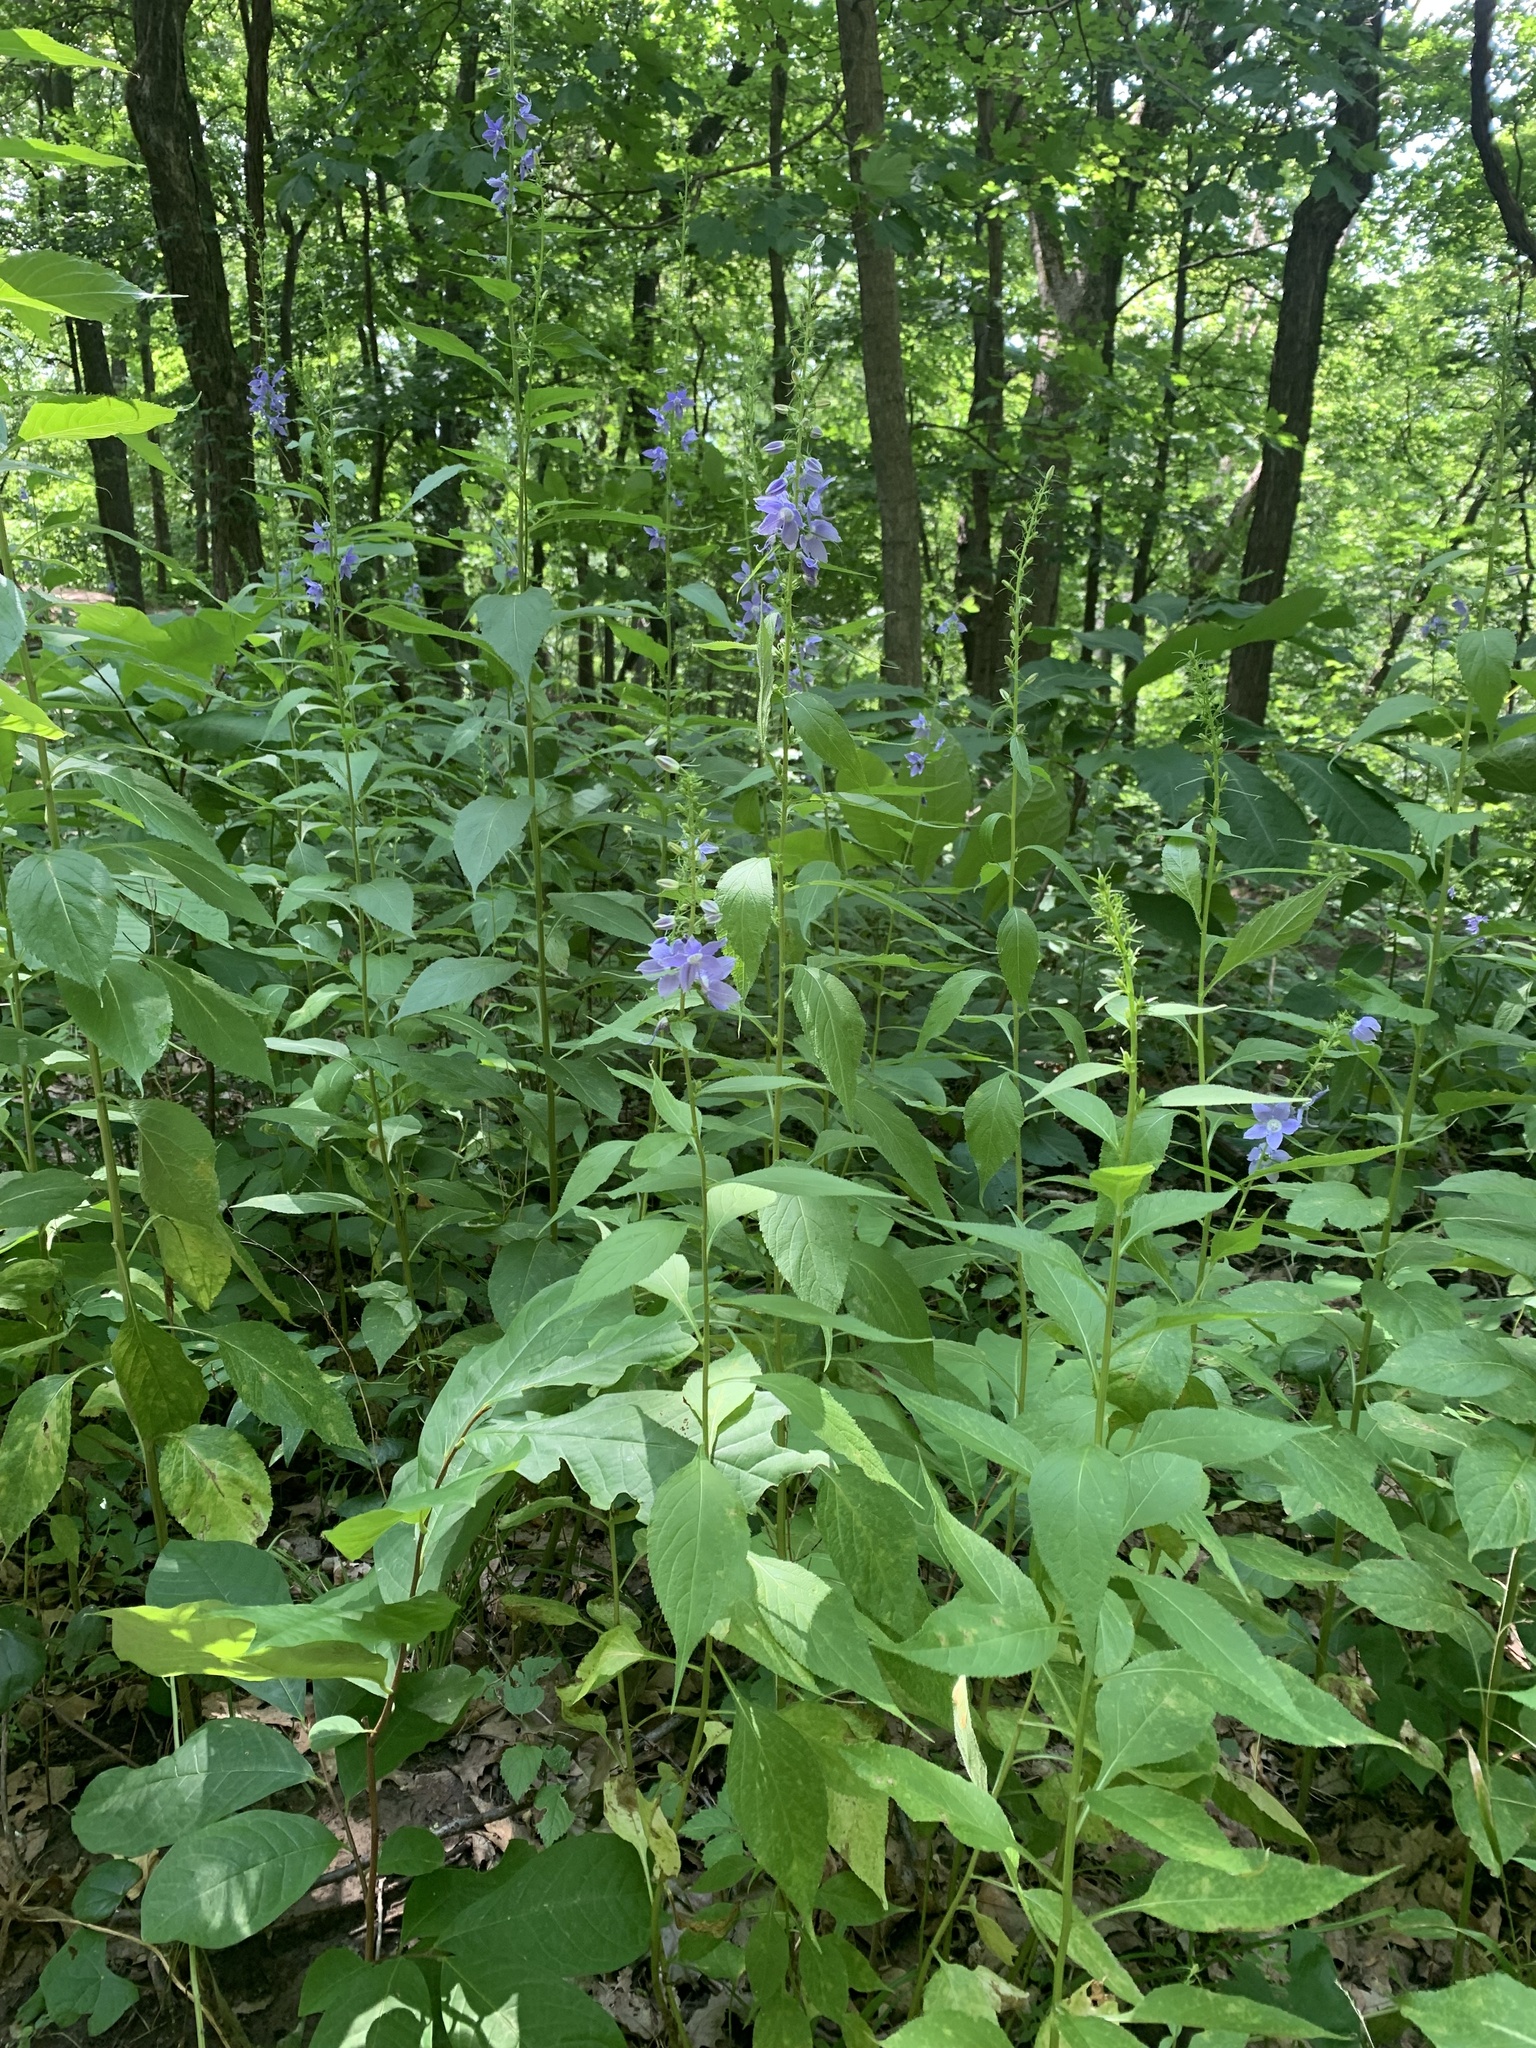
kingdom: Plantae
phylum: Tracheophyta
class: Magnoliopsida
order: Asterales
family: Campanulaceae
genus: Campanulastrum
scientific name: Campanulastrum americanum
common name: American bellflower
